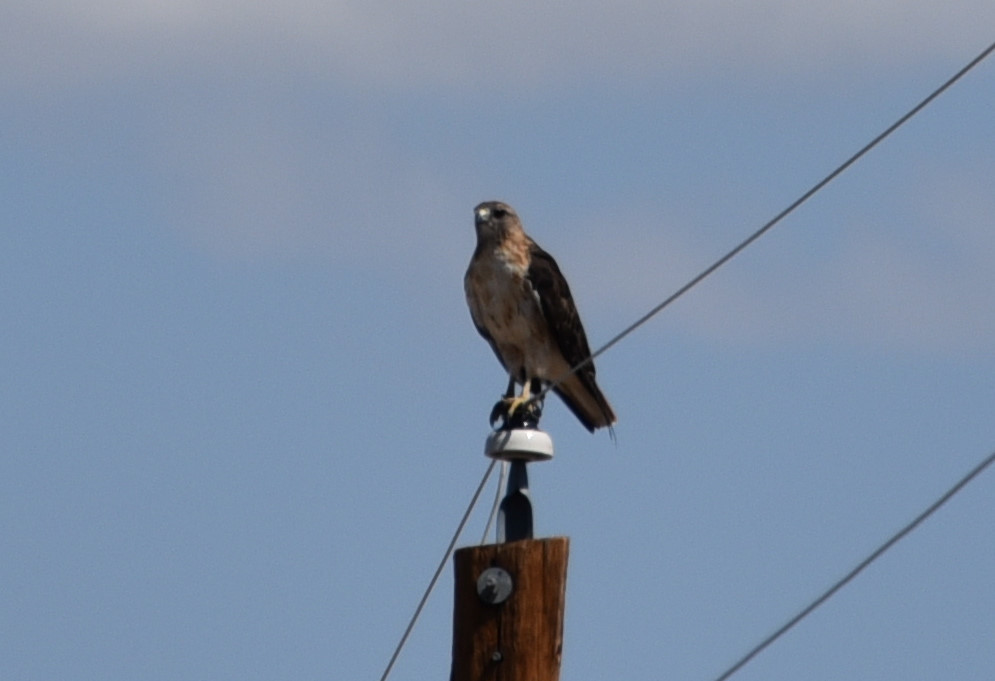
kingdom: Animalia
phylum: Chordata
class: Aves
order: Accipitriformes
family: Accipitridae
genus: Buteo
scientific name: Buteo jamaicensis
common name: Red-tailed hawk
